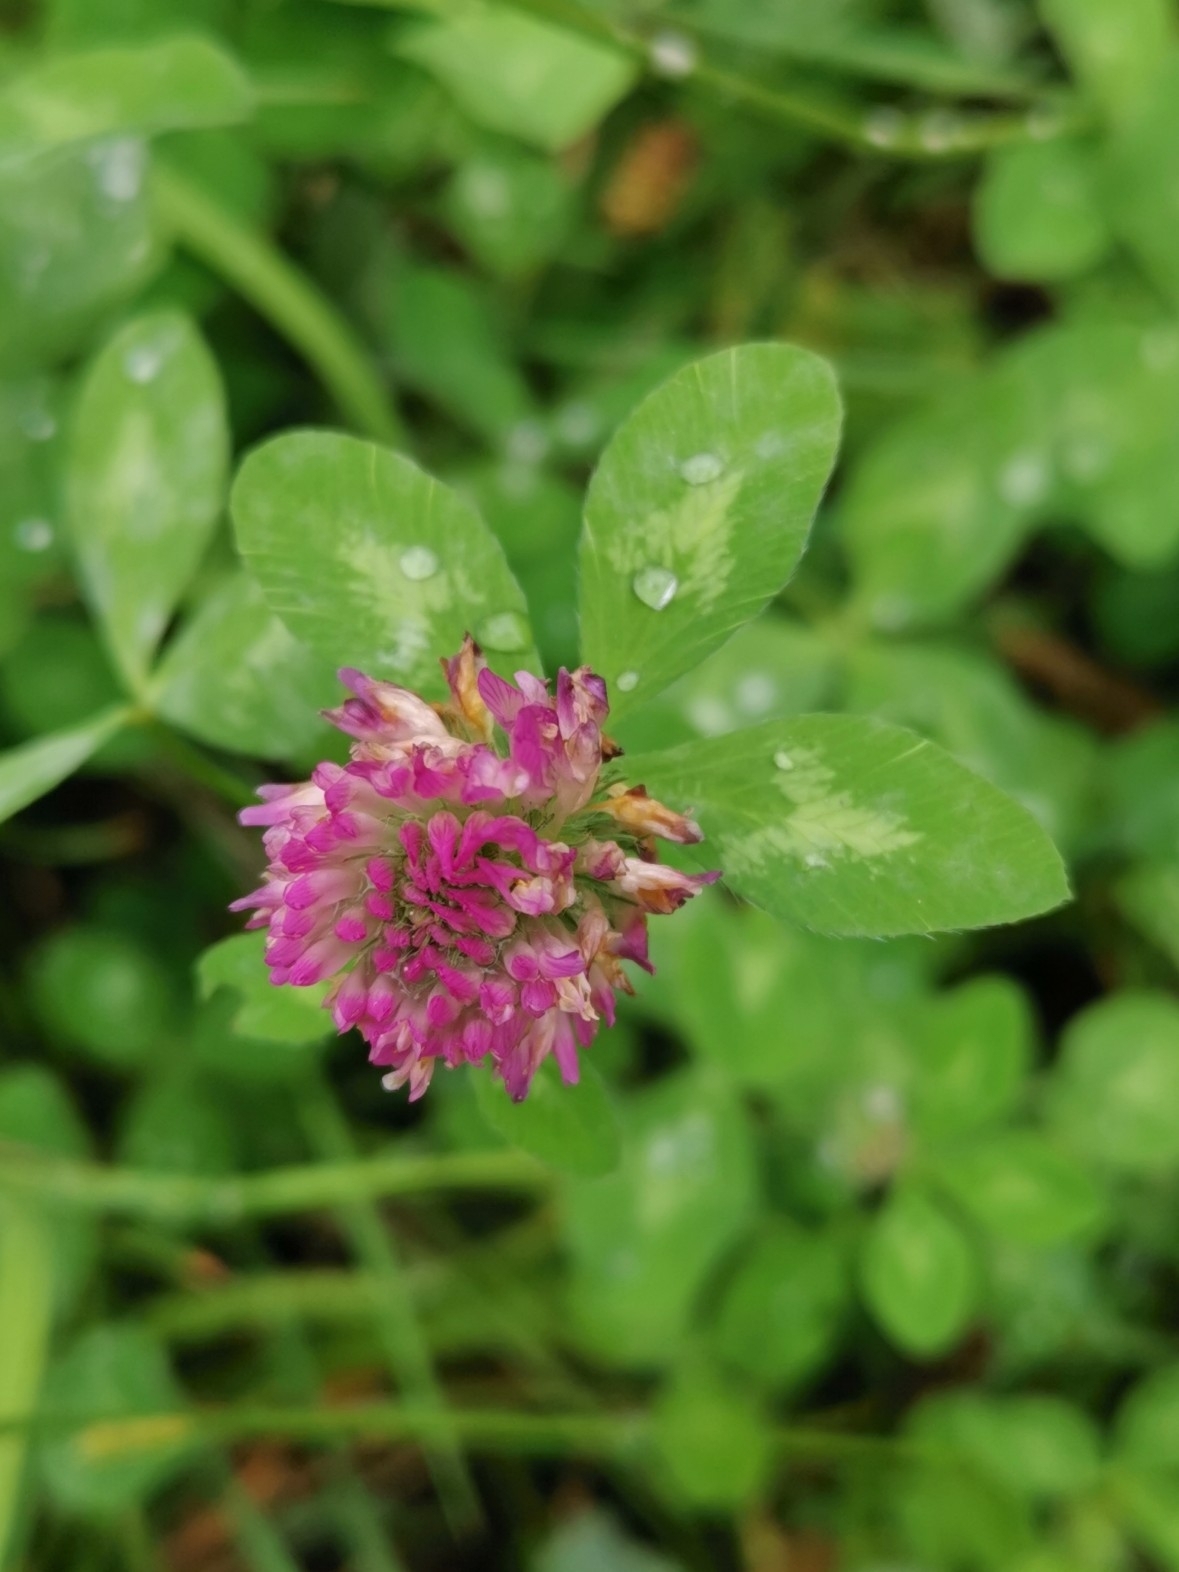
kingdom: Plantae
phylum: Tracheophyta
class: Magnoliopsida
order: Fabales
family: Fabaceae
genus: Trifolium
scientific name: Trifolium pratense
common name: Red clover
